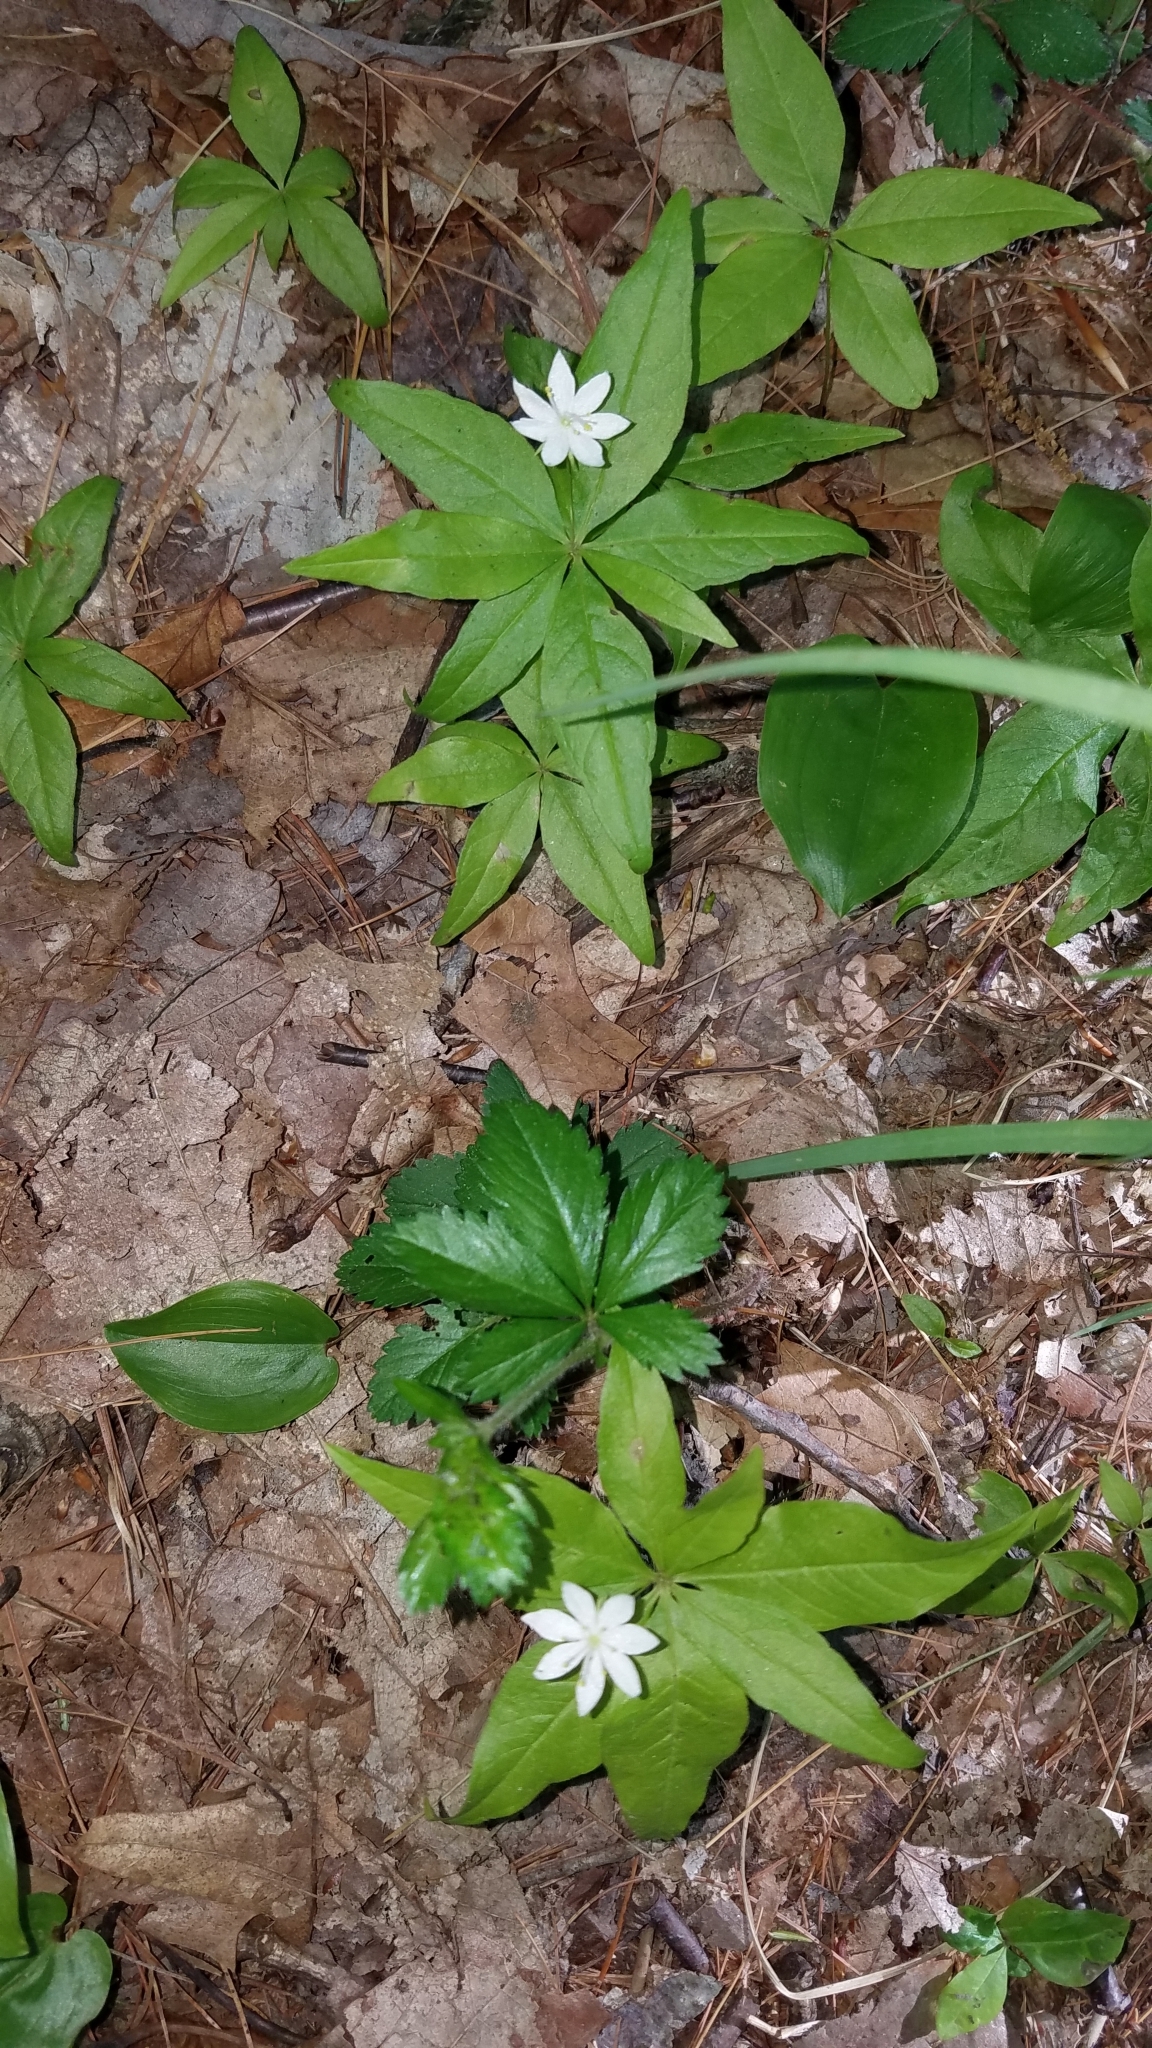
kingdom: Plantae
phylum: Tracheophyta
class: Magnoliopsida
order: Ericales
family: Primulaceae
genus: Lysimachia
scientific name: Lysimachia borealis
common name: American starflower
